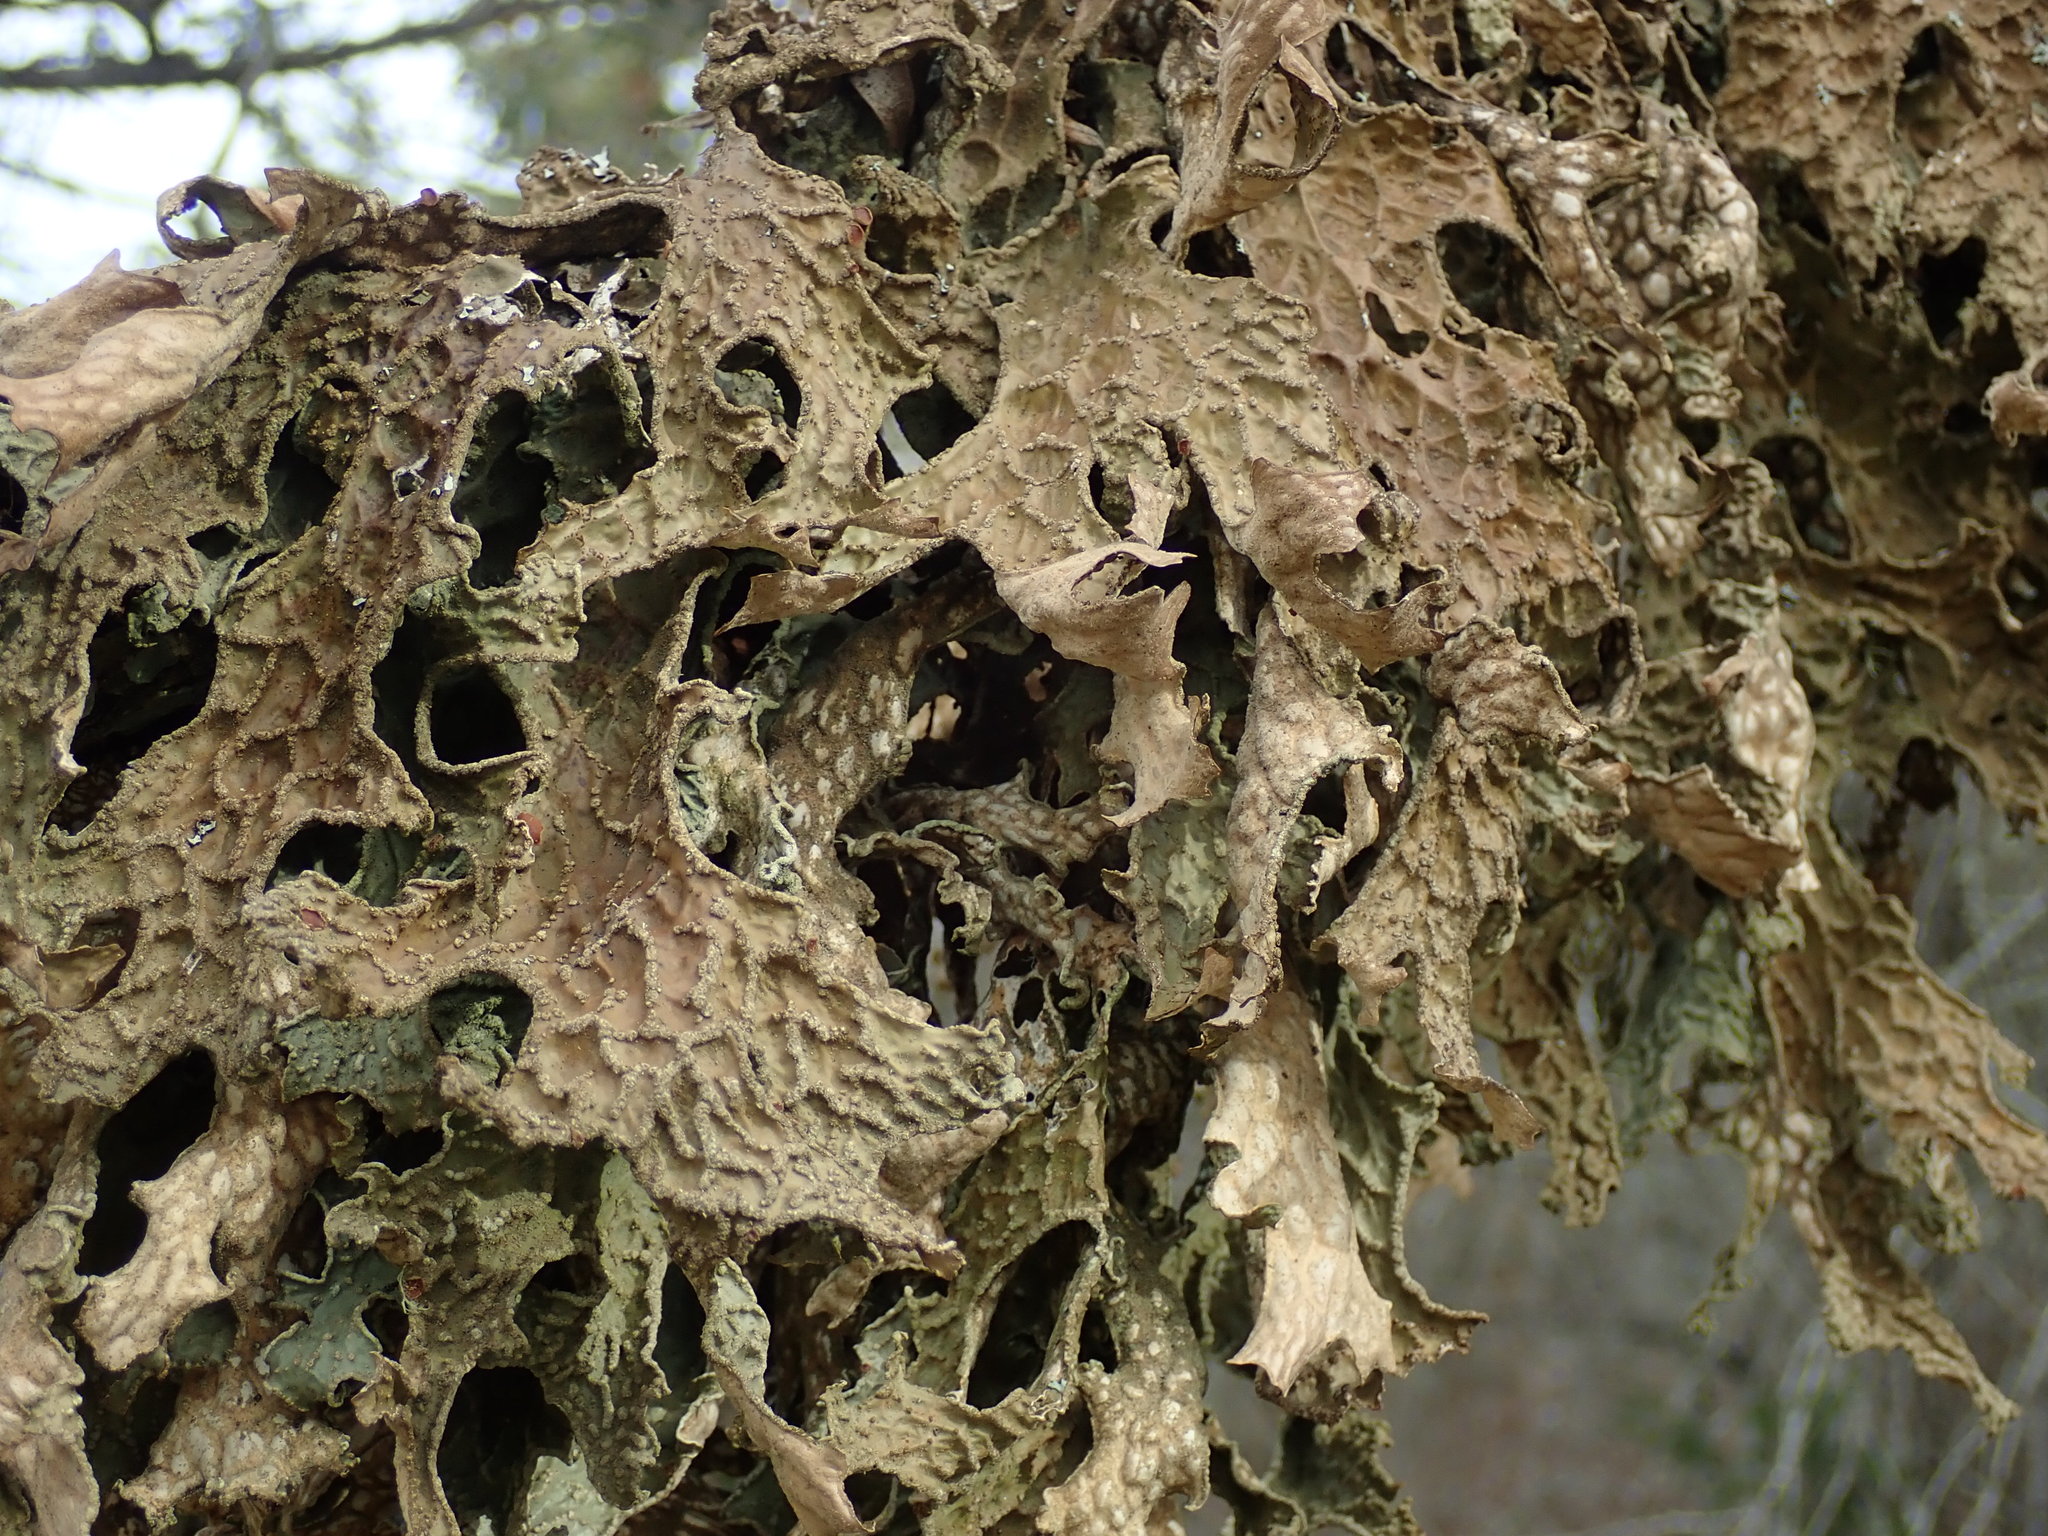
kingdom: Fungi
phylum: Ascomycota
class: Lecanoromycetes
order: Peltigerales
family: Lobariaceae
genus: Lobaria
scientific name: Lobaria pulmonaria
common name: Lungwort
